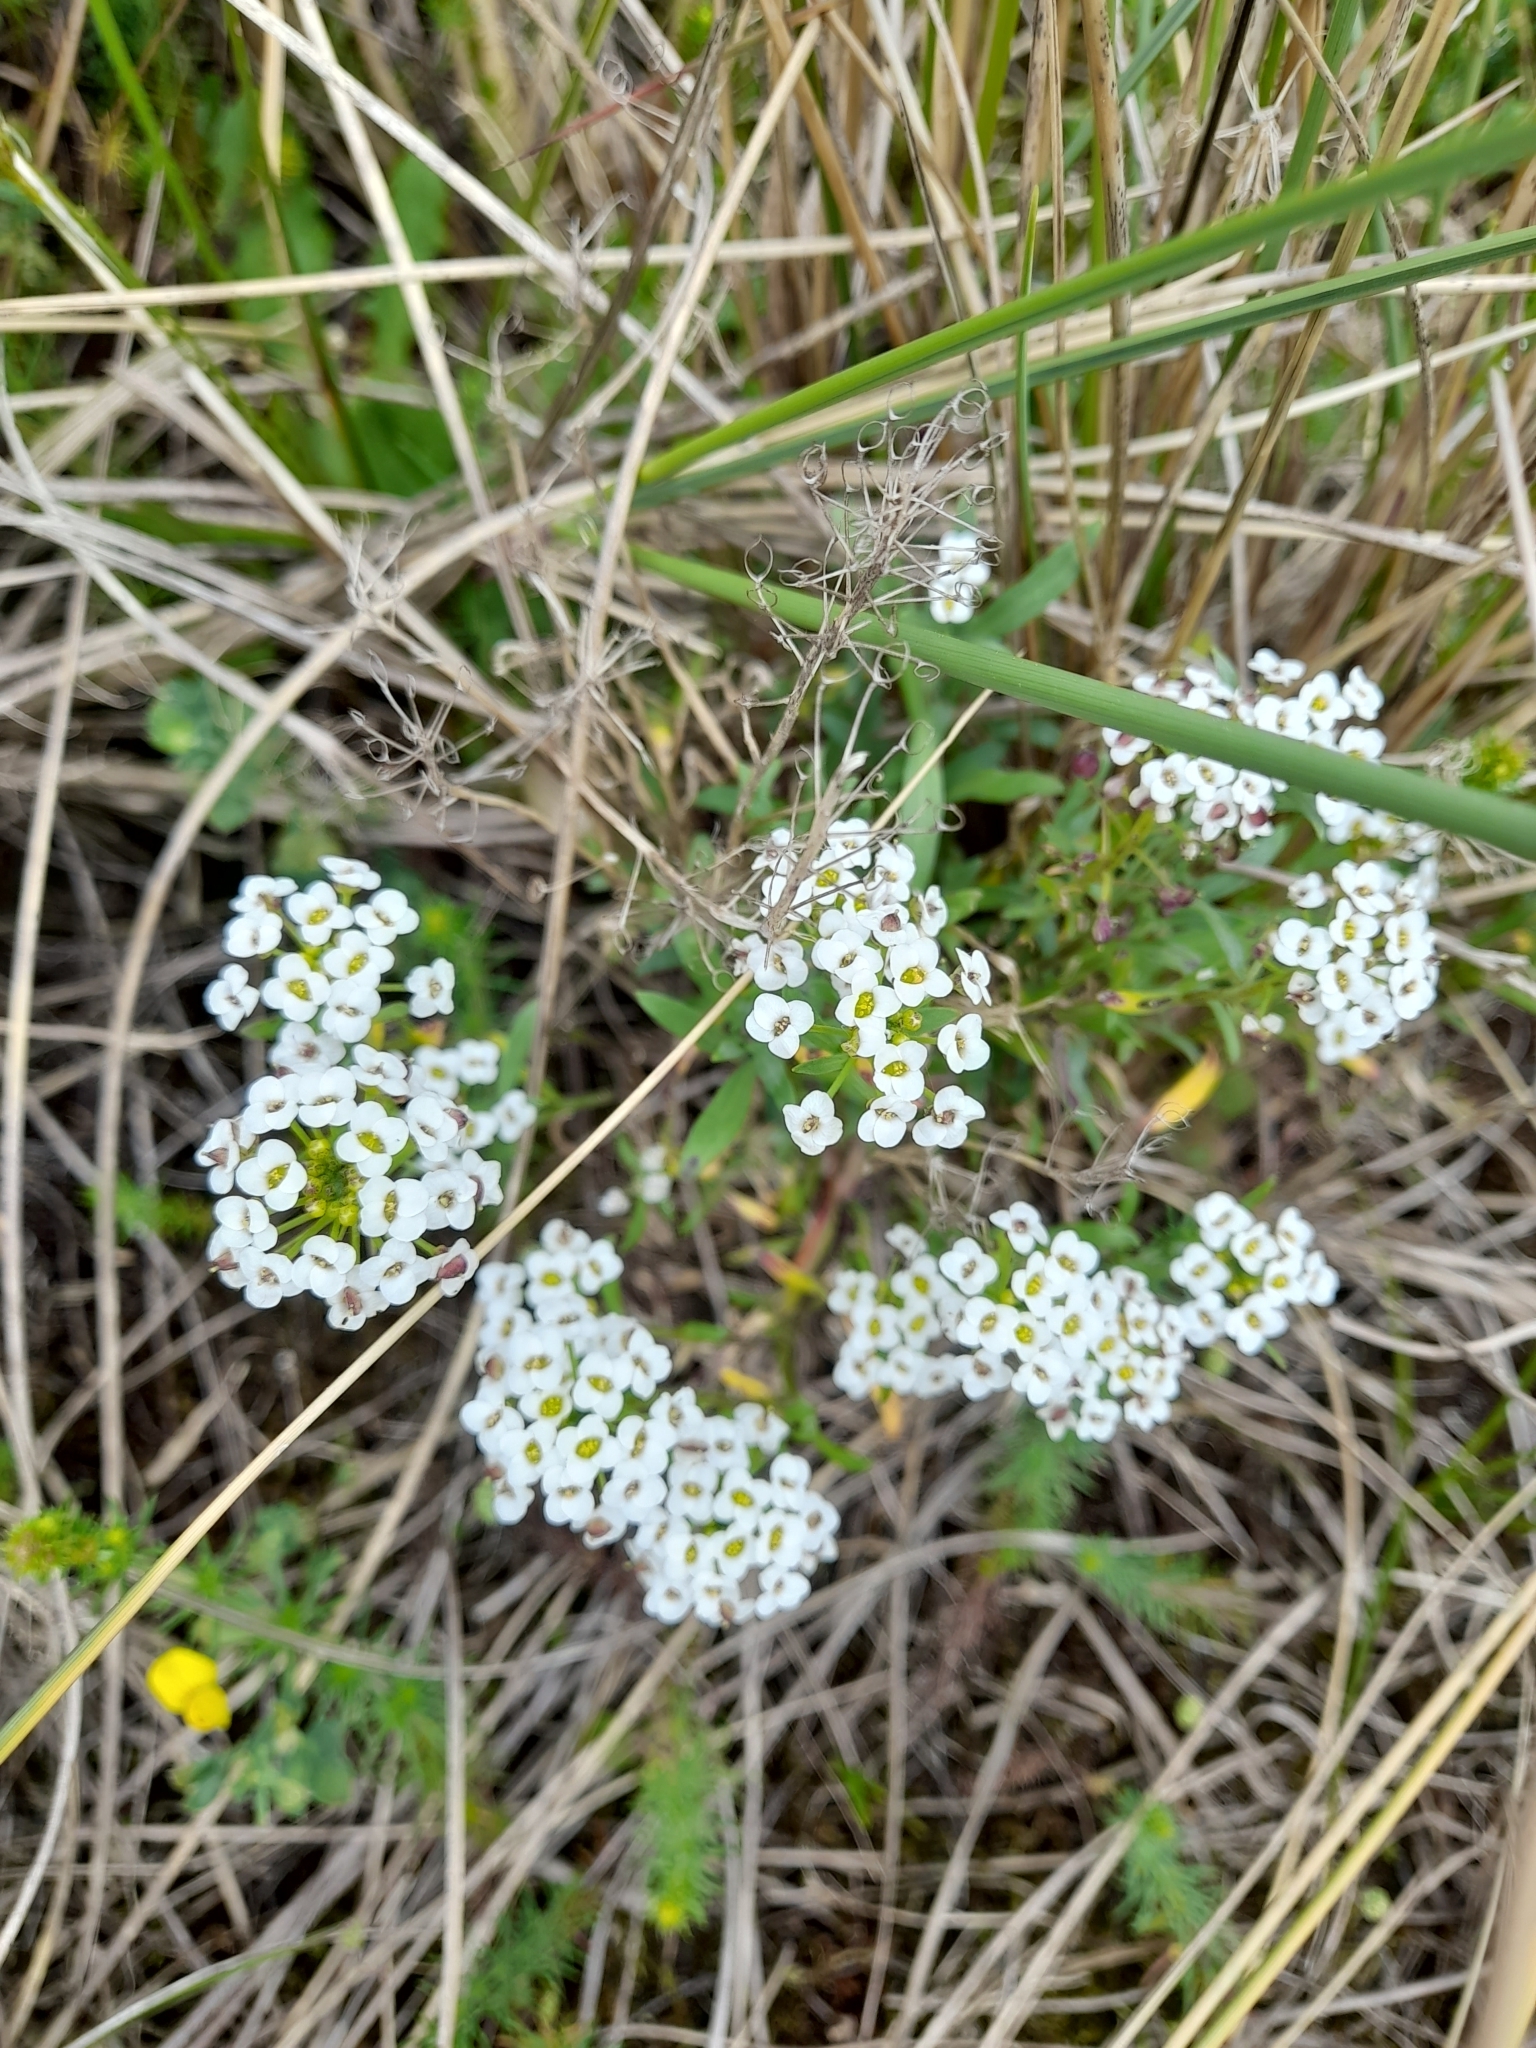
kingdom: Plantae
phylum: Tracheophyta
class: Magnoliopsida
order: Brassicales
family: Brassicaceae
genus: Lobularia
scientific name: Lobularia maritima
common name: Sweet alison
